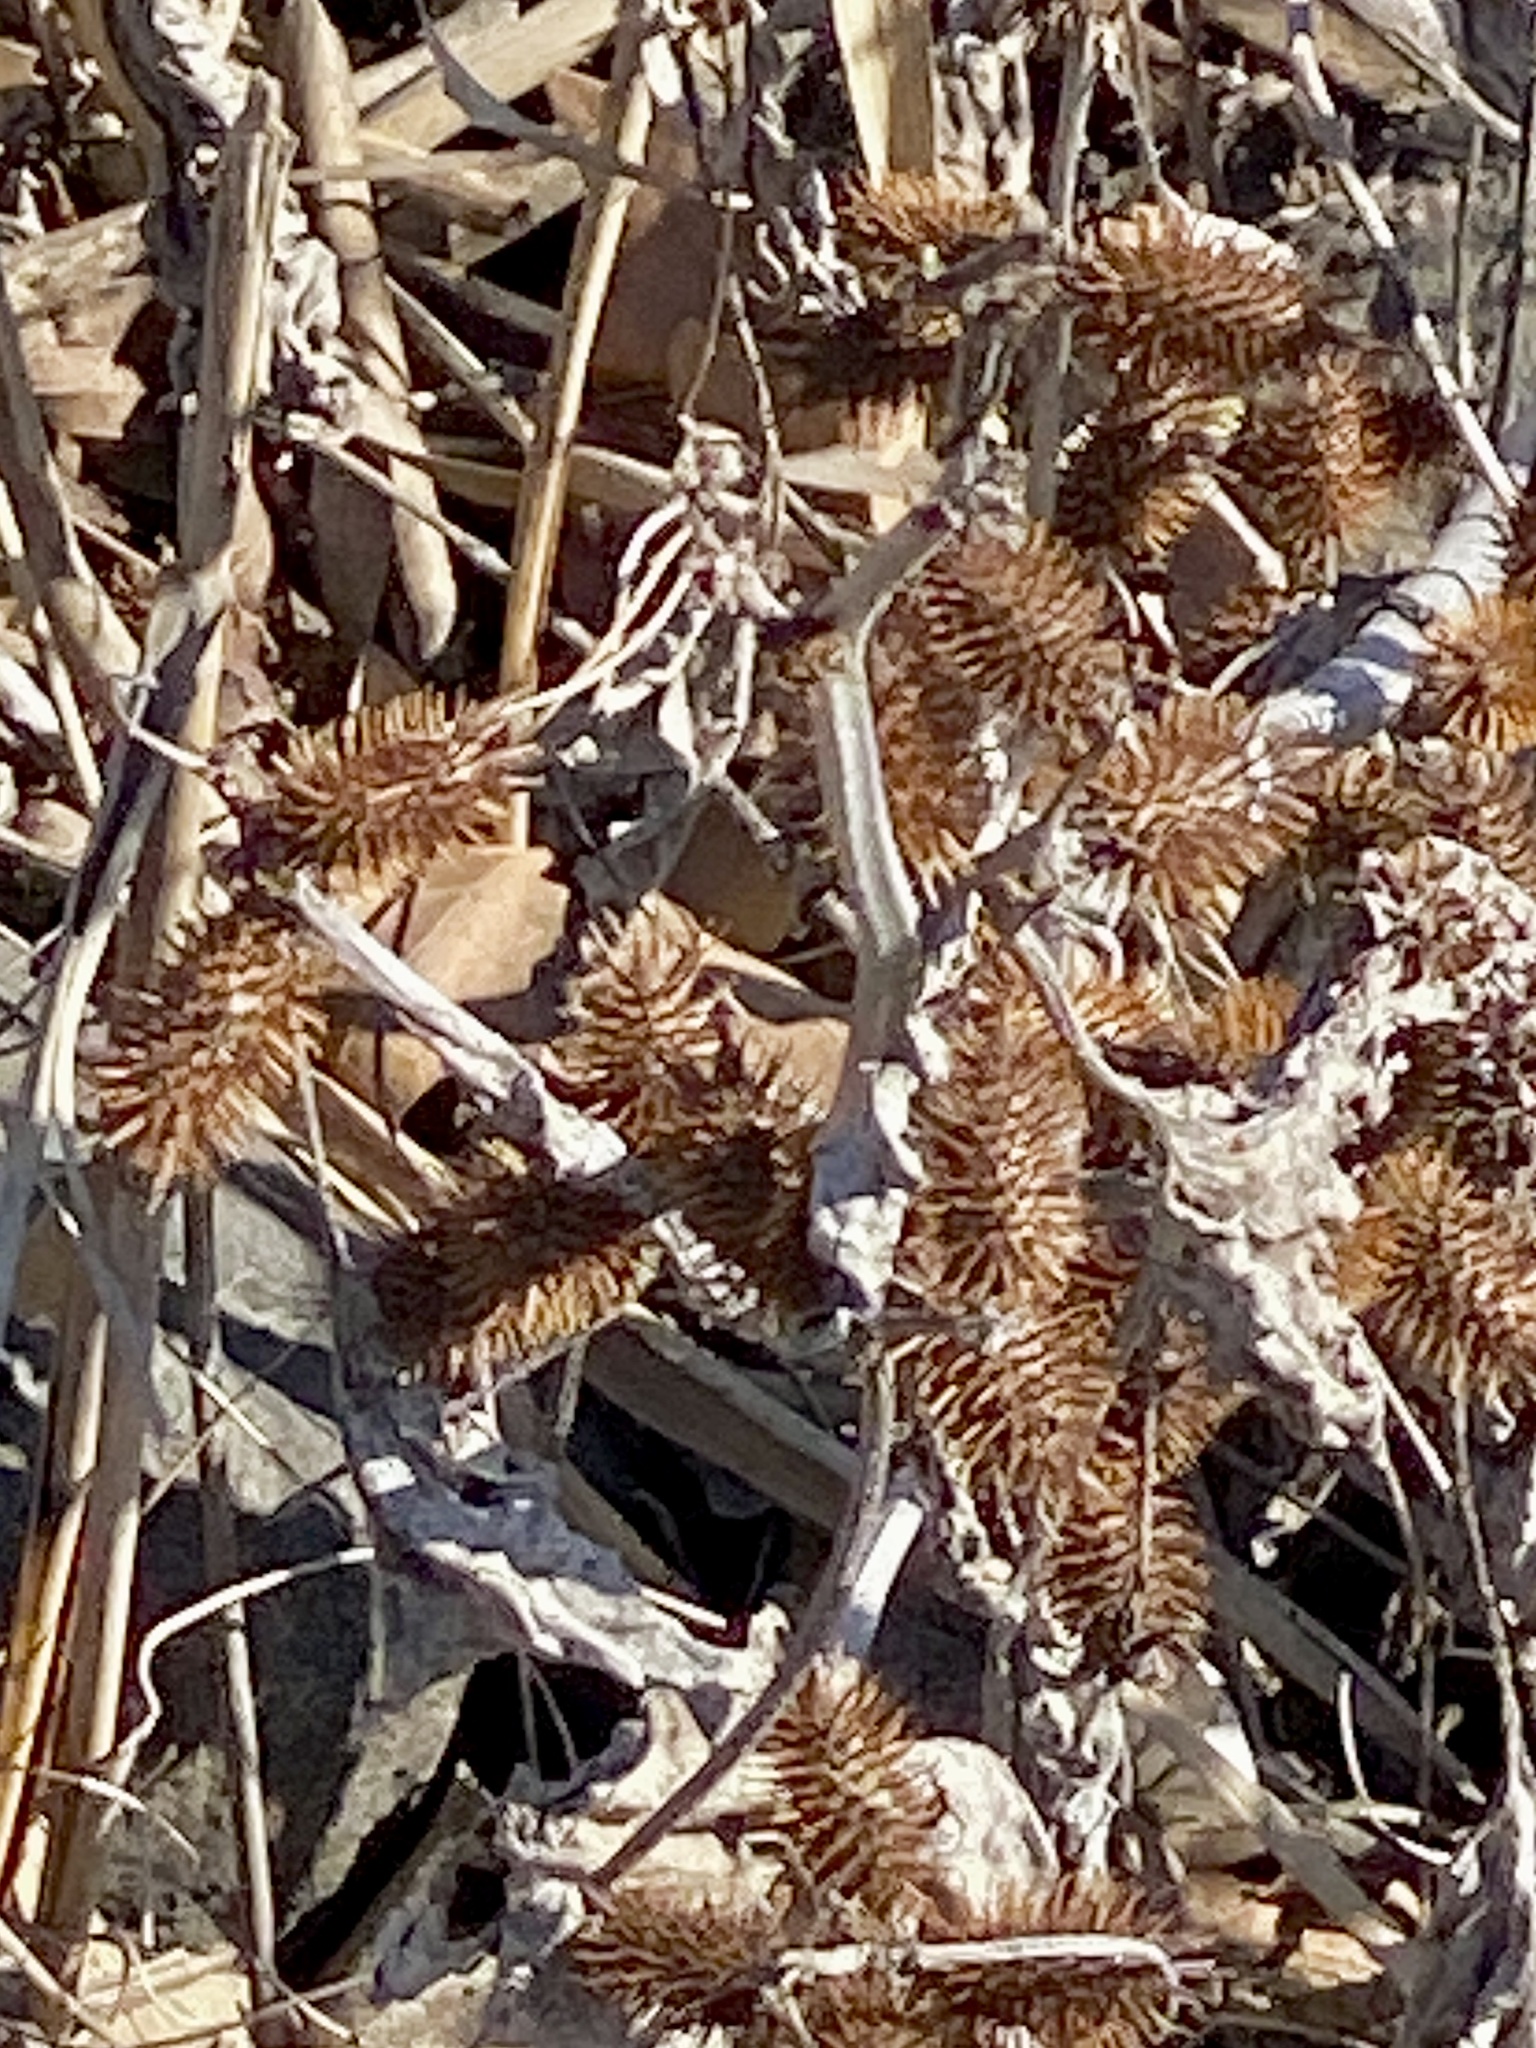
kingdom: Plantae
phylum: Tracheophyta
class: Magnoliopsida
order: Asterales
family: Asteraceae
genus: Xanthium
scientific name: Xanthium strumarium
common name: Rough cocklebur
